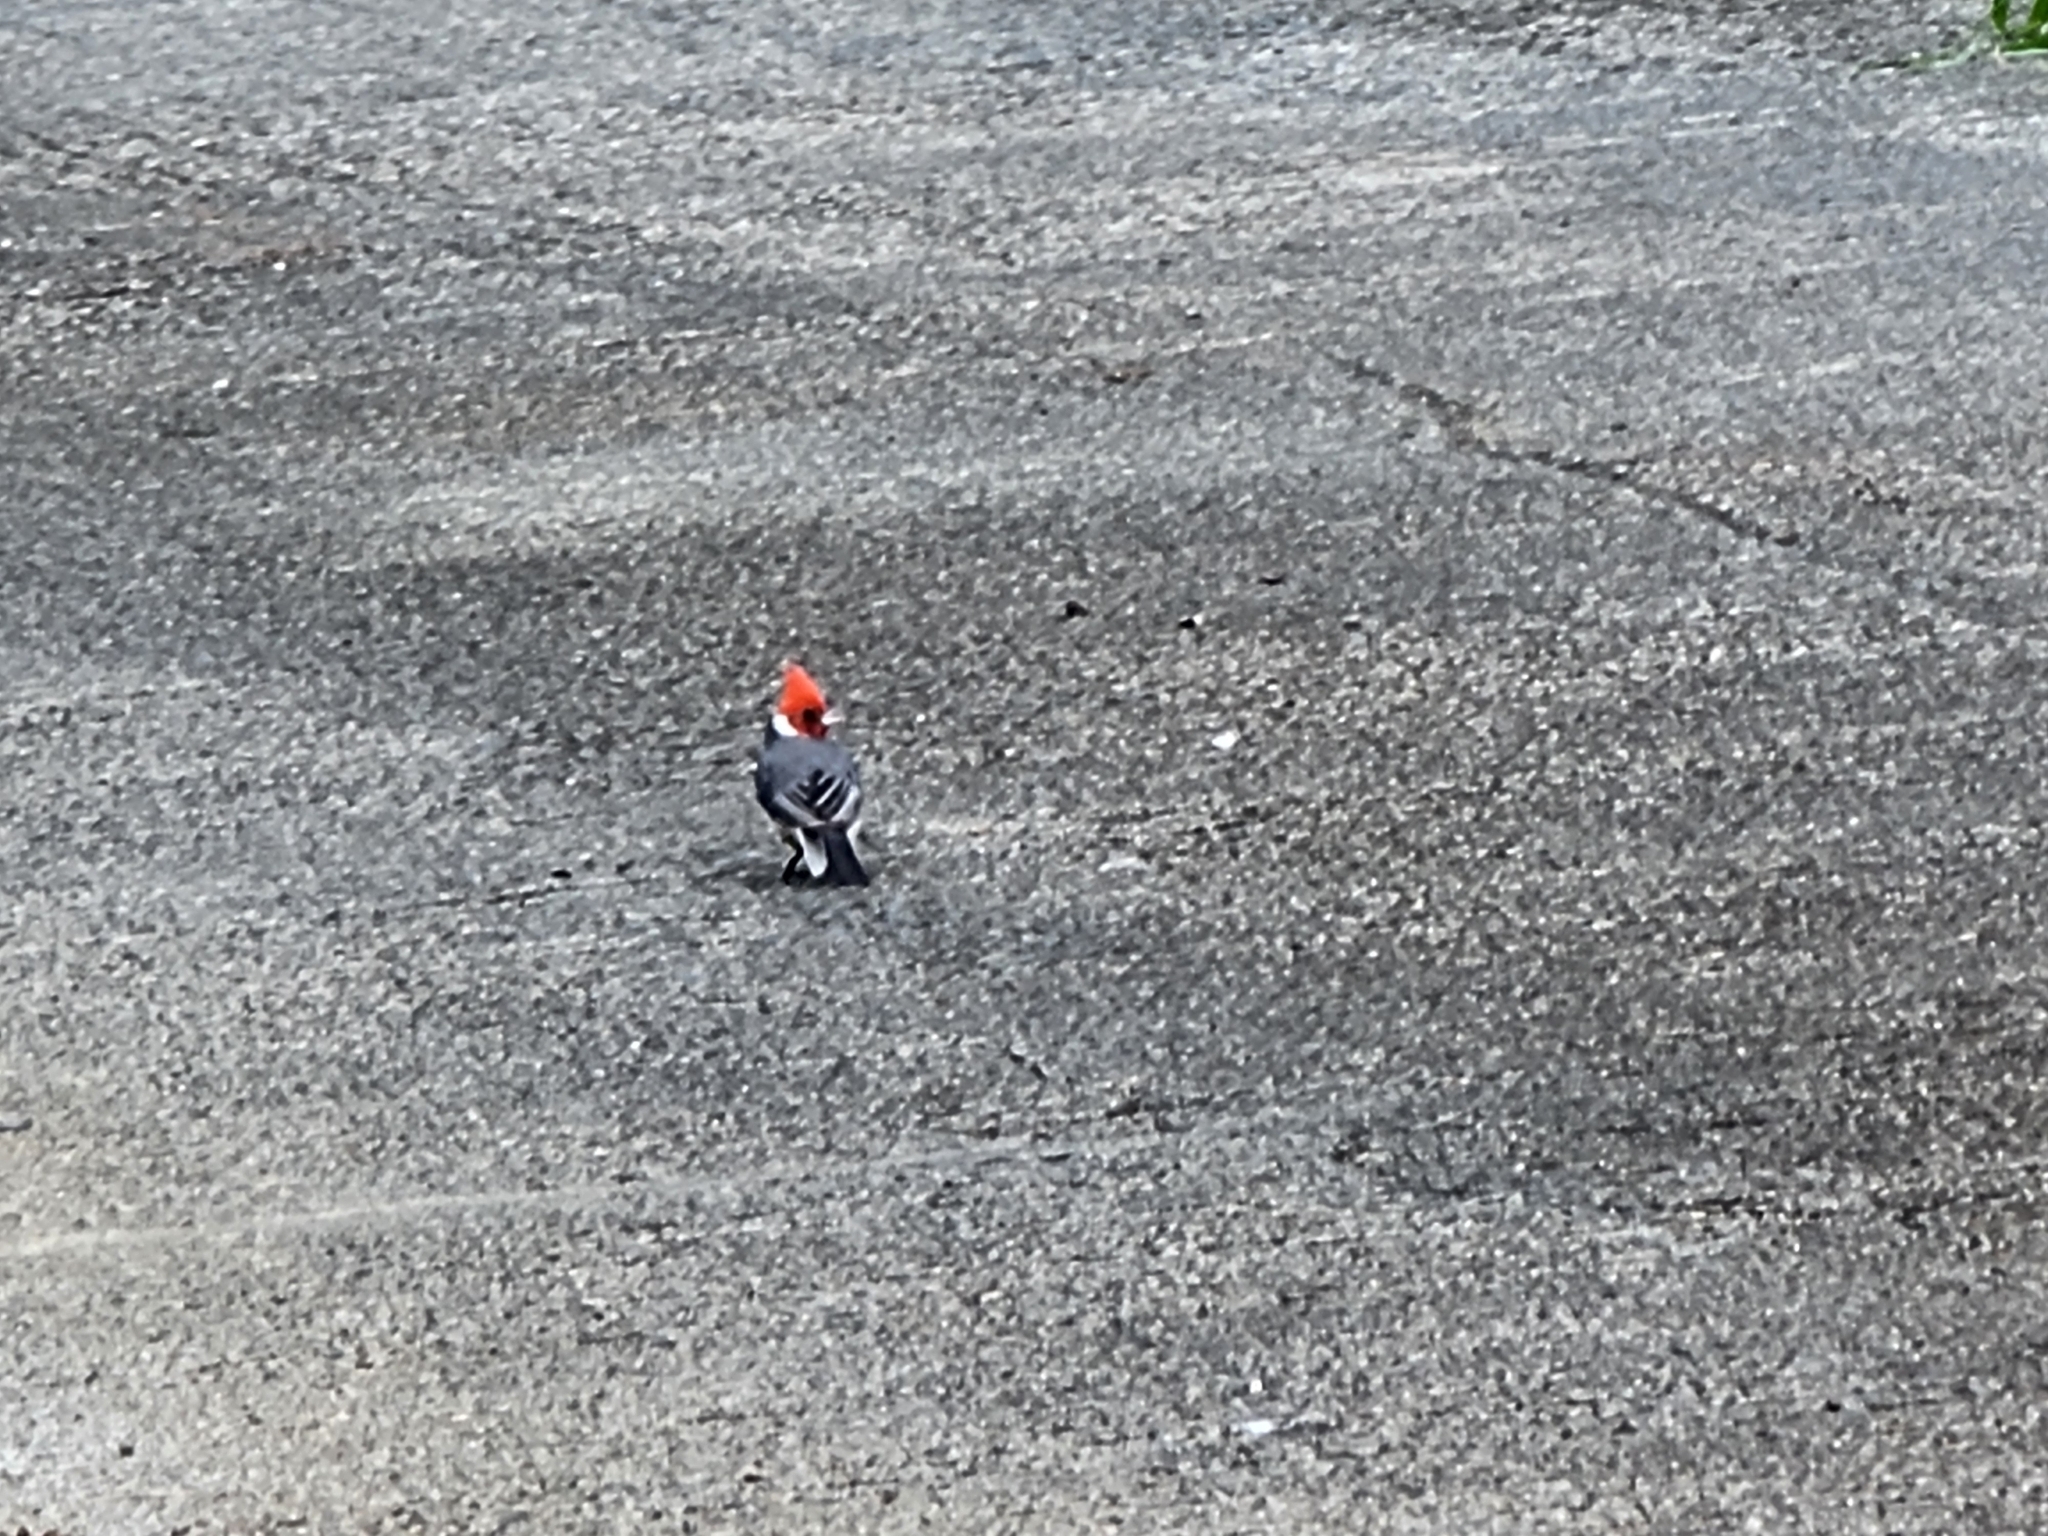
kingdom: Animalia
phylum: Chordata
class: Aves
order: Passeriformes
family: Thraupidae
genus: Paroaria
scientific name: Paroaria coronata
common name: Red-crested cardinal
